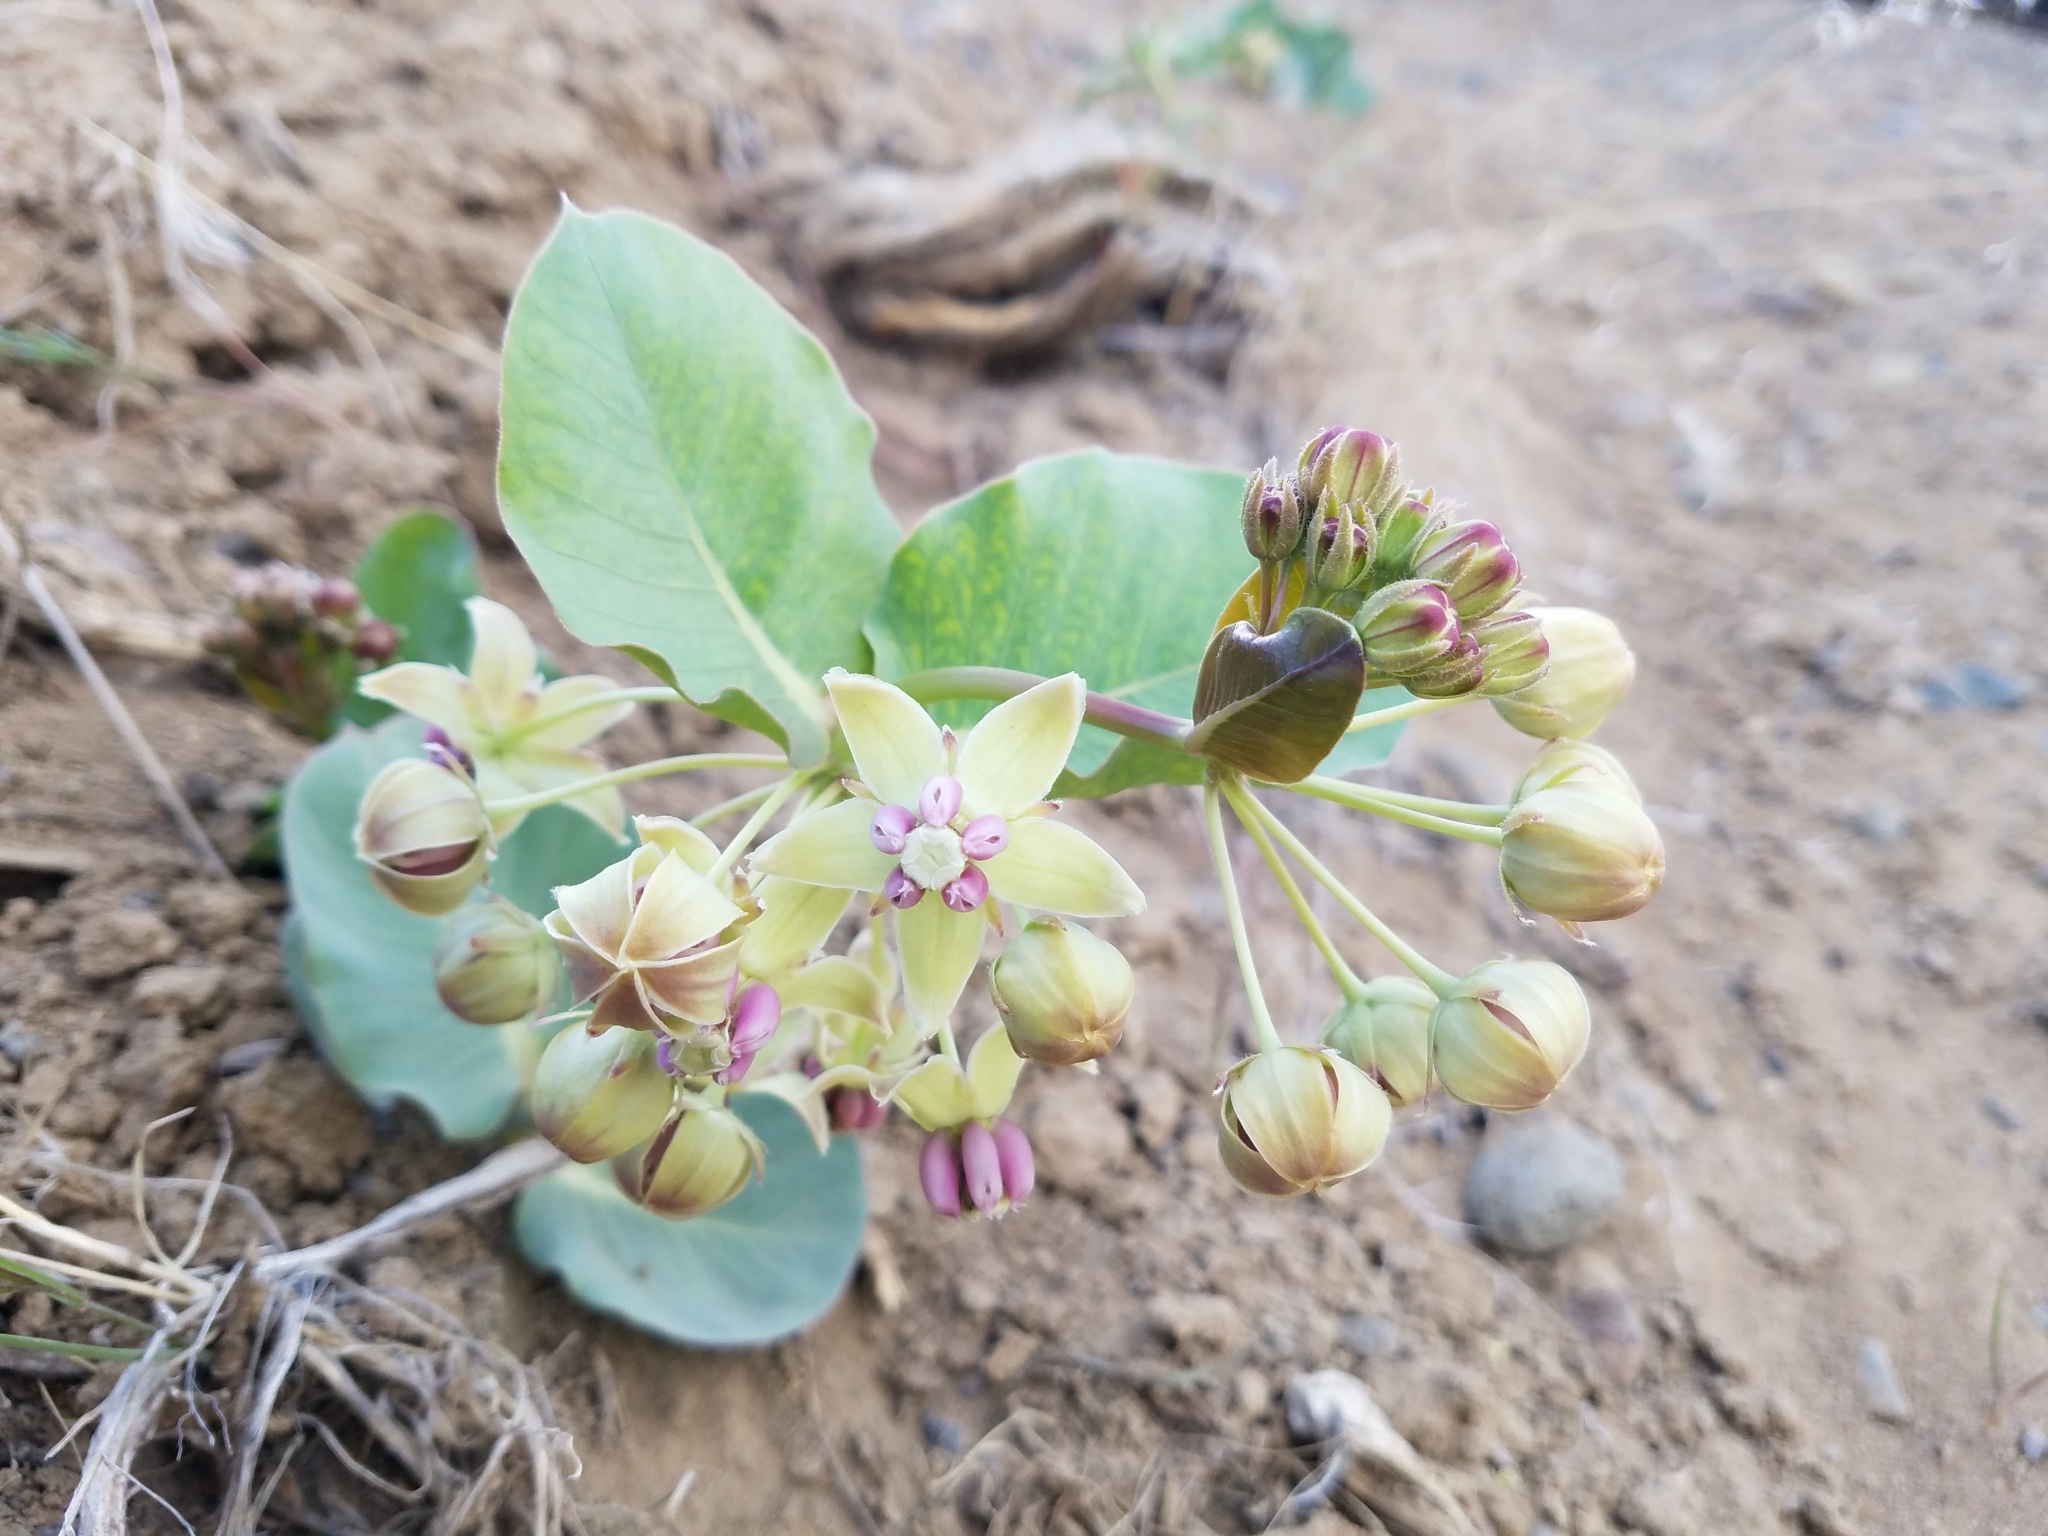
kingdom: Plantae
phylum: Tracheophyta
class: Magnoliopsida
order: Gentianales
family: Apocynaceae
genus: Asclepias
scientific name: Asclepias cryptoceras
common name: Humboldt mountains milkweed
